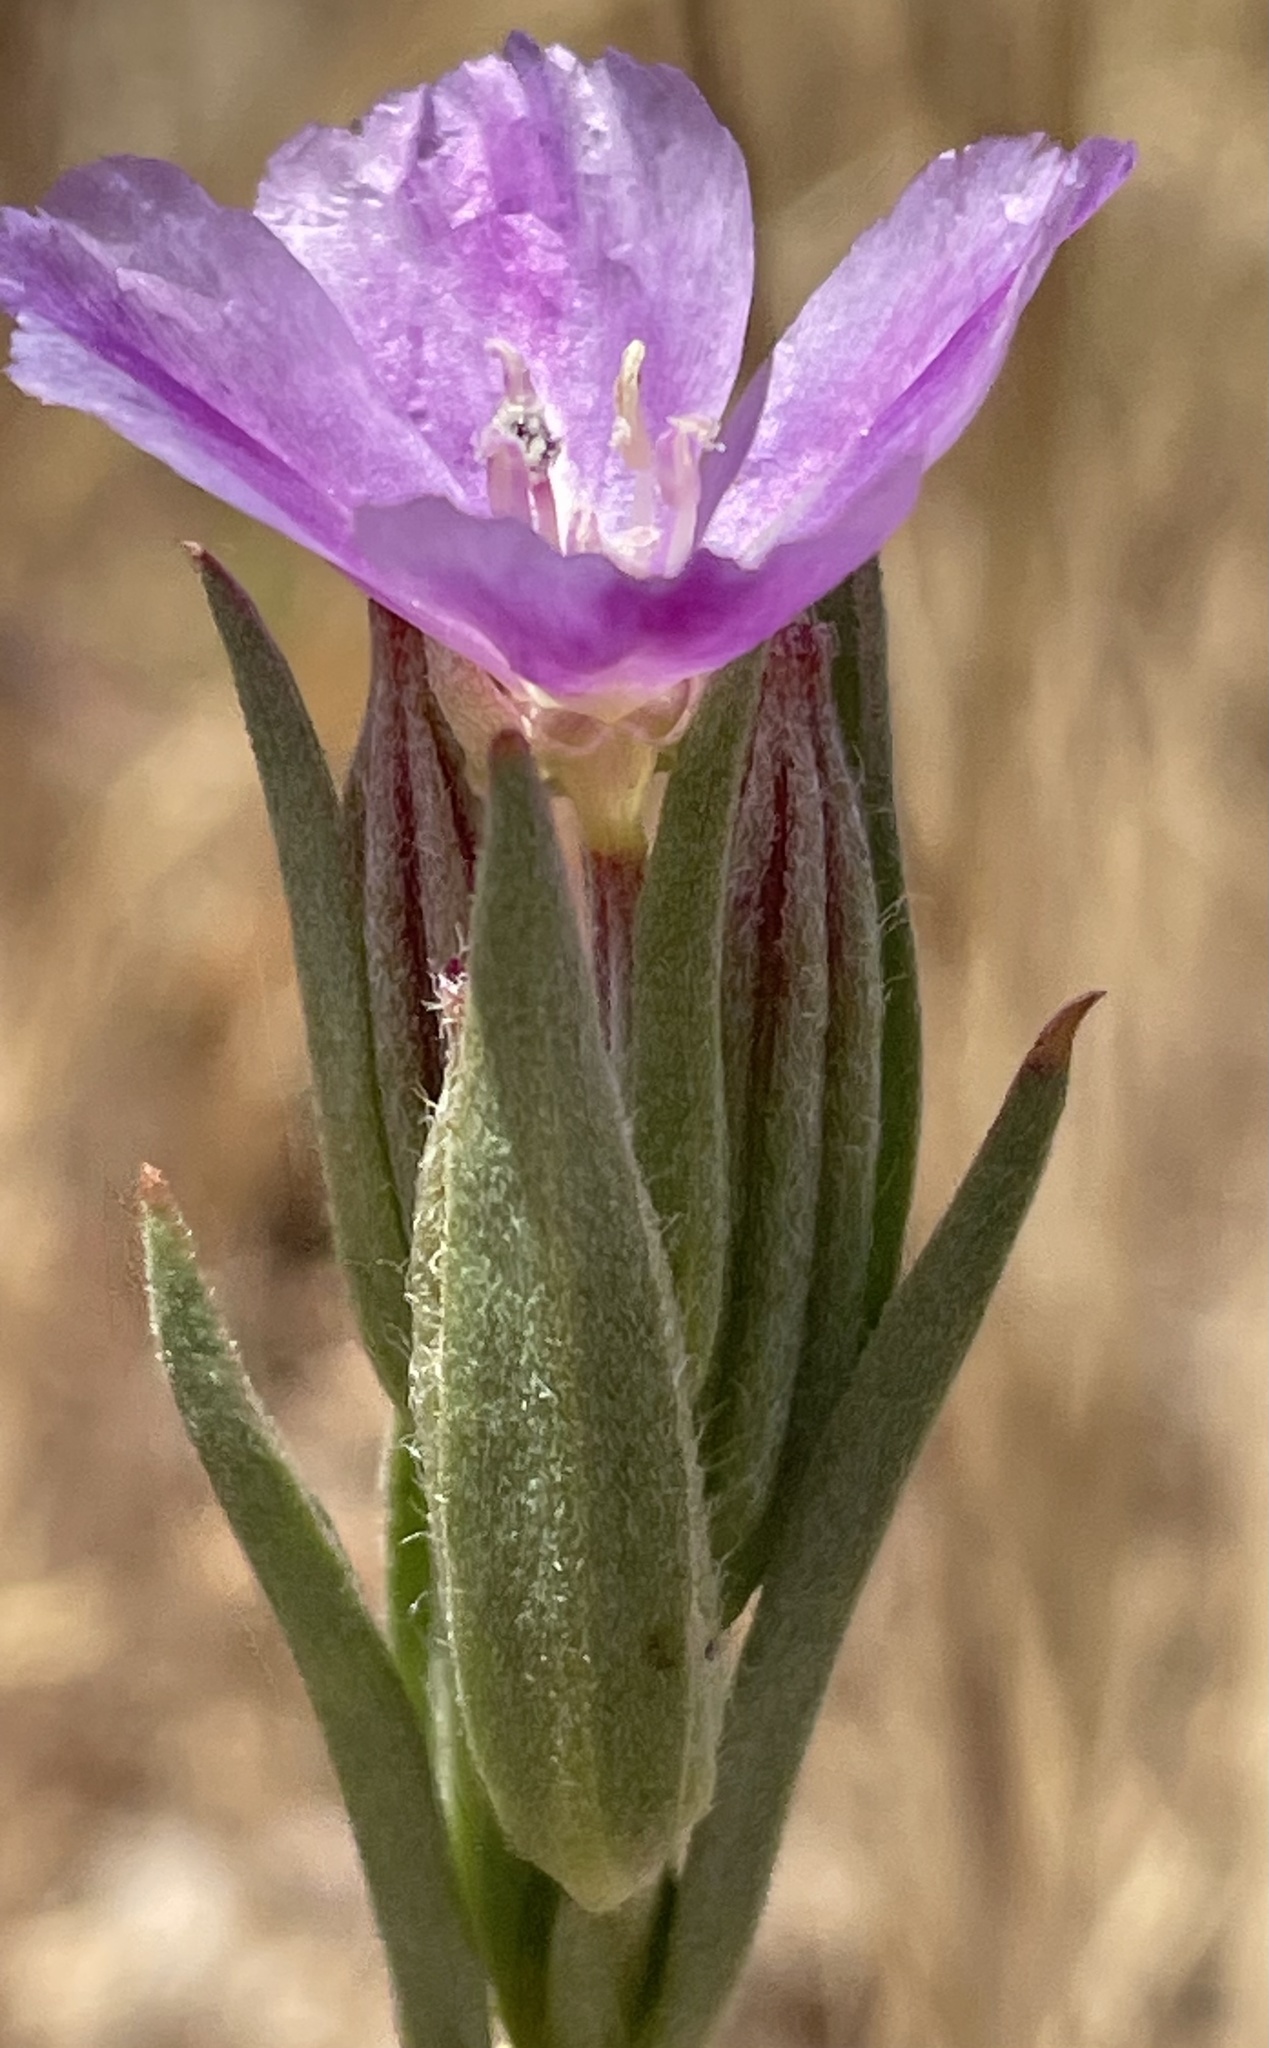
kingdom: Plantae
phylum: Tracheophyta
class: Magnoliopsida
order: Myrtales
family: Onagraceae
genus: Clarkia
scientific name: Clarkia purpurea
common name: Purple clarkia
